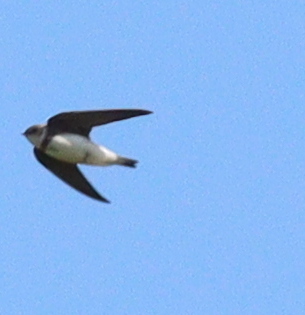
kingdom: Animalia
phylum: Chordata
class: Aves
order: Passeriformes
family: Hirundinidae
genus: Riparia
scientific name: Riparia riparia
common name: Sand martin
